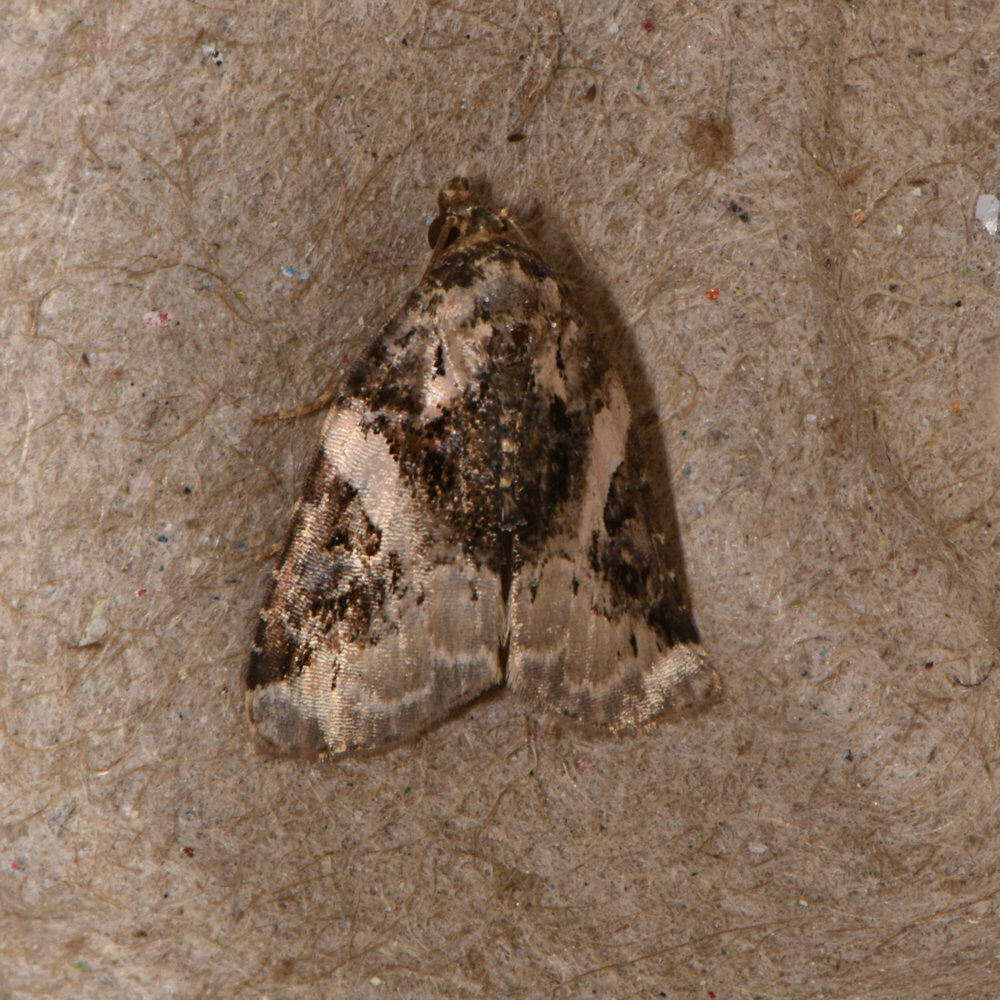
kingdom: Animalia
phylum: Arthropoda
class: Insecta
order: Lepidoptera
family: Noctuidae
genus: Pseudeustrotia
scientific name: Pseudeustrotia carneola
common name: Pink-barred lithacodia moth
